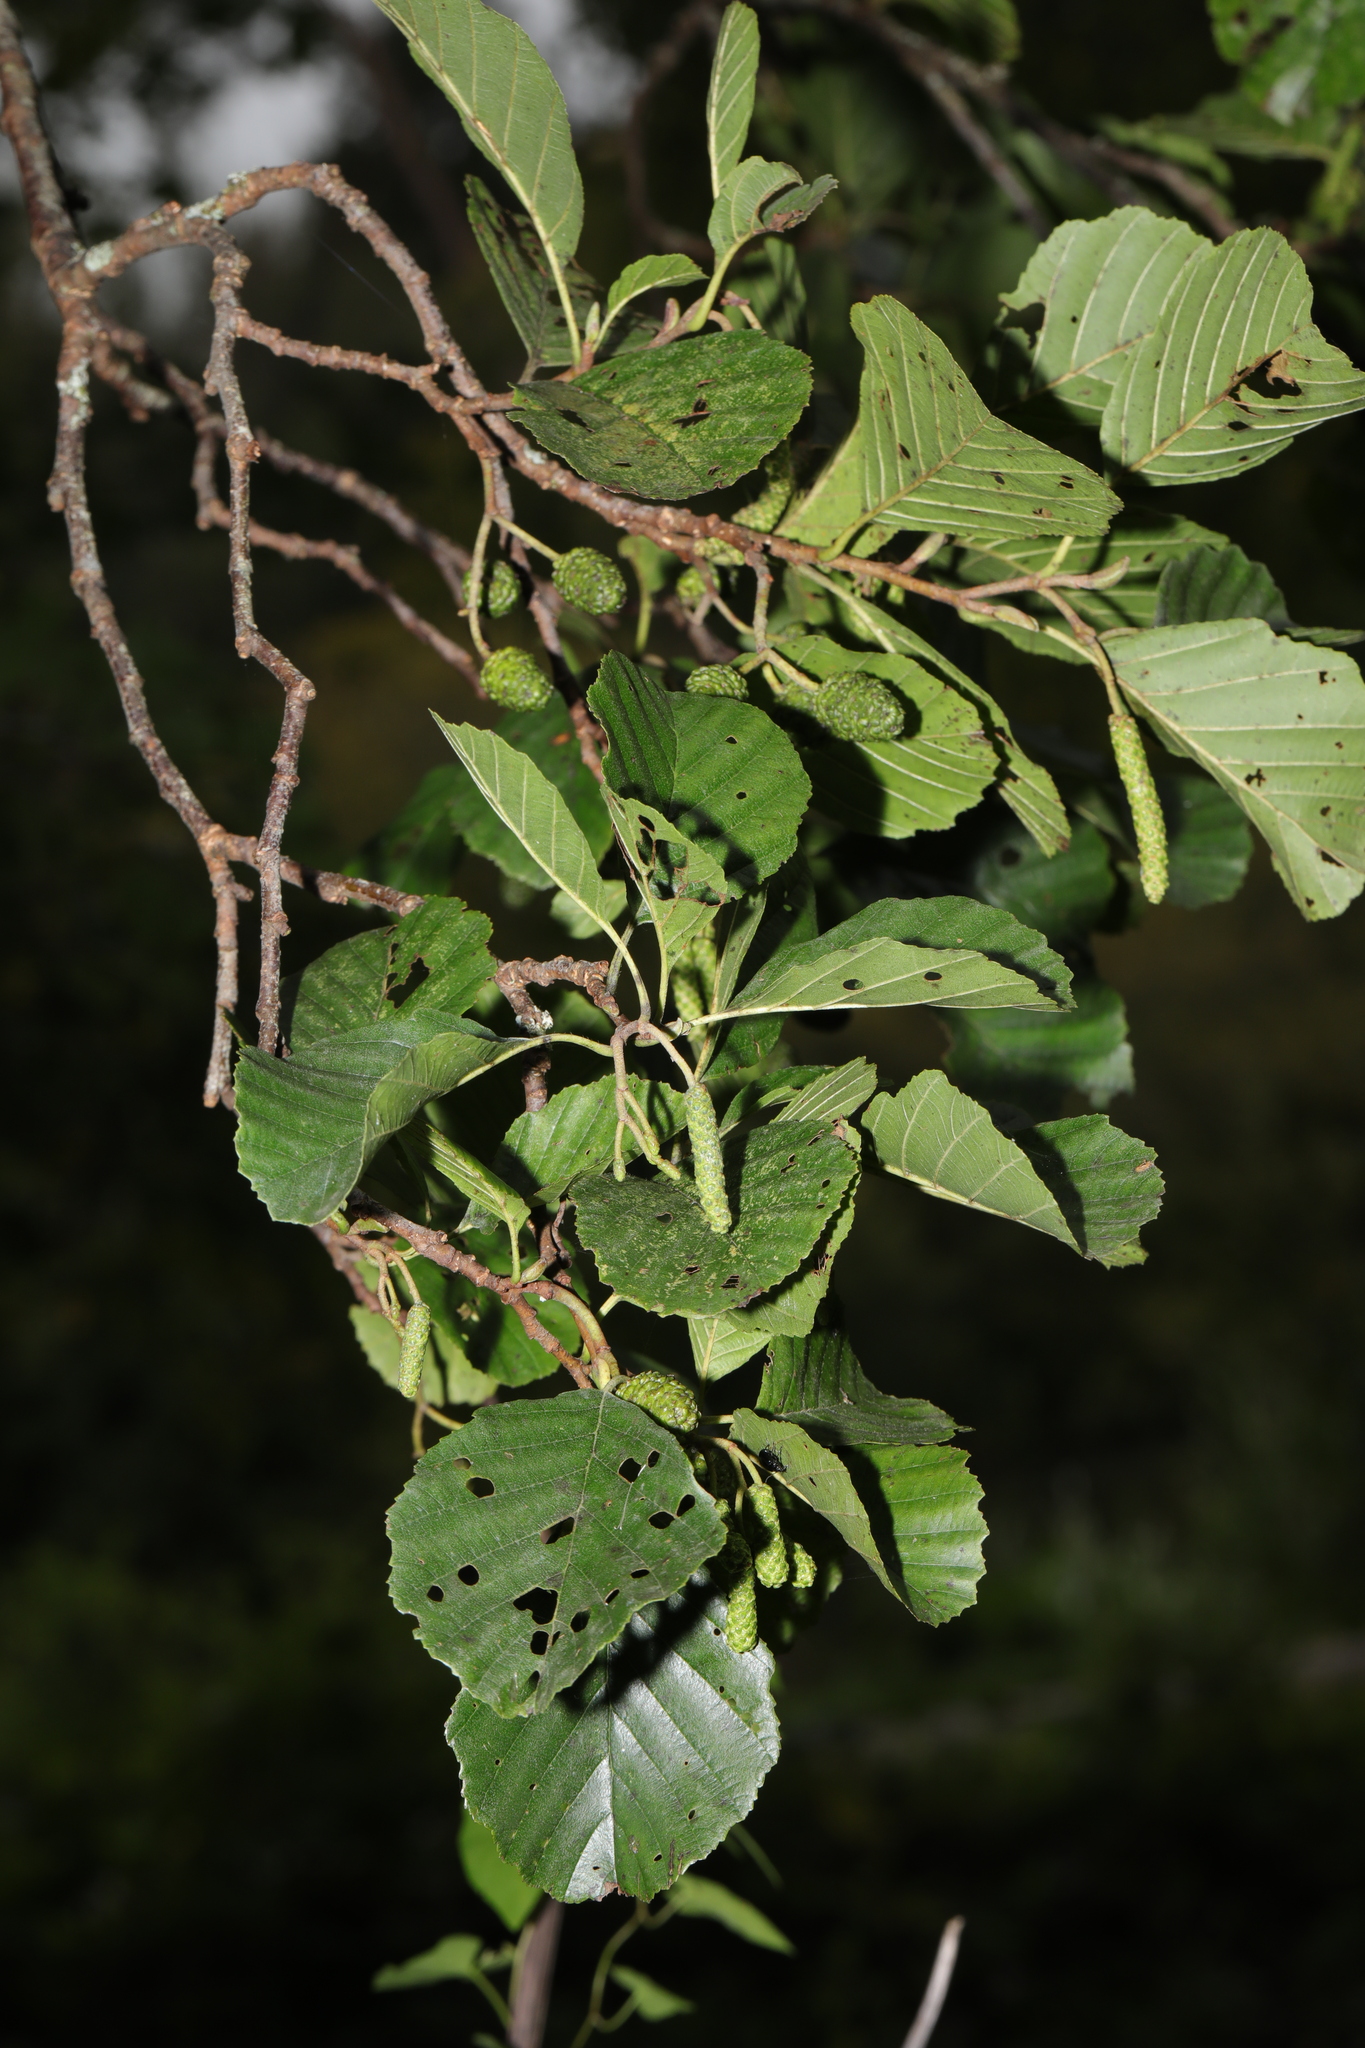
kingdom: Plantae
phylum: Tracheophyta
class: Magnoliopsida
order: Fagales
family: Betulaceae
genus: Alnus
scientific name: Alnus glutinosa
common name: Black alder
